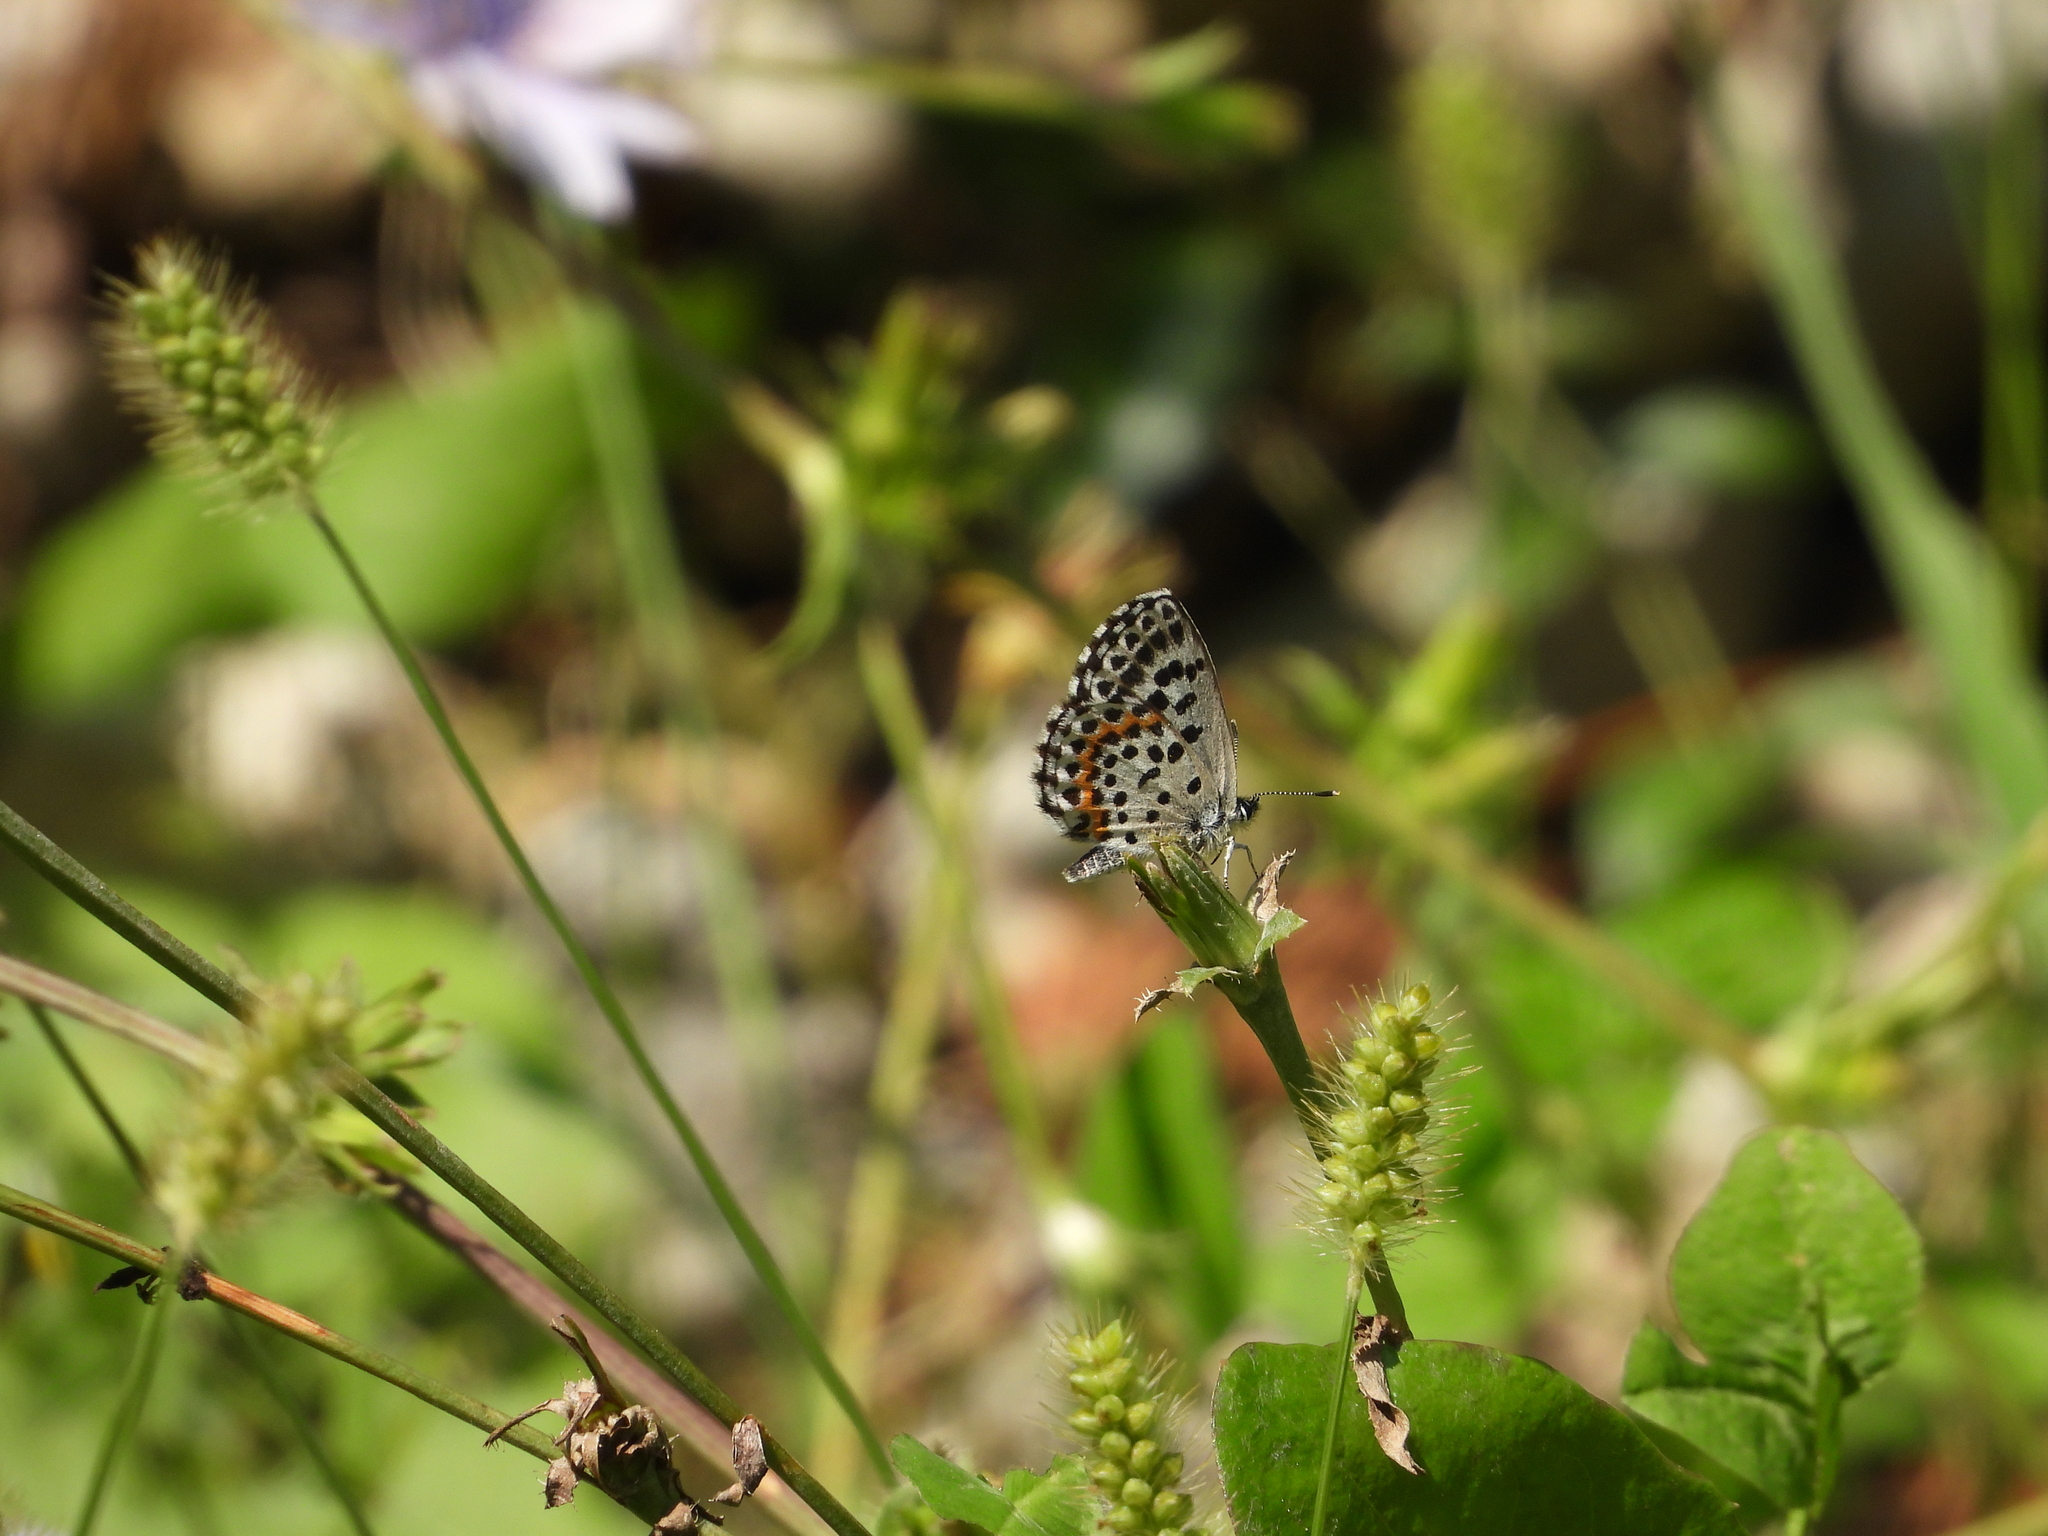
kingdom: Animalia
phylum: Arthropoda
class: Insecta
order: Lepidoptera
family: Lycaenidae
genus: Scolitantides
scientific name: Scolitantides orion
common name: Chequered blue
